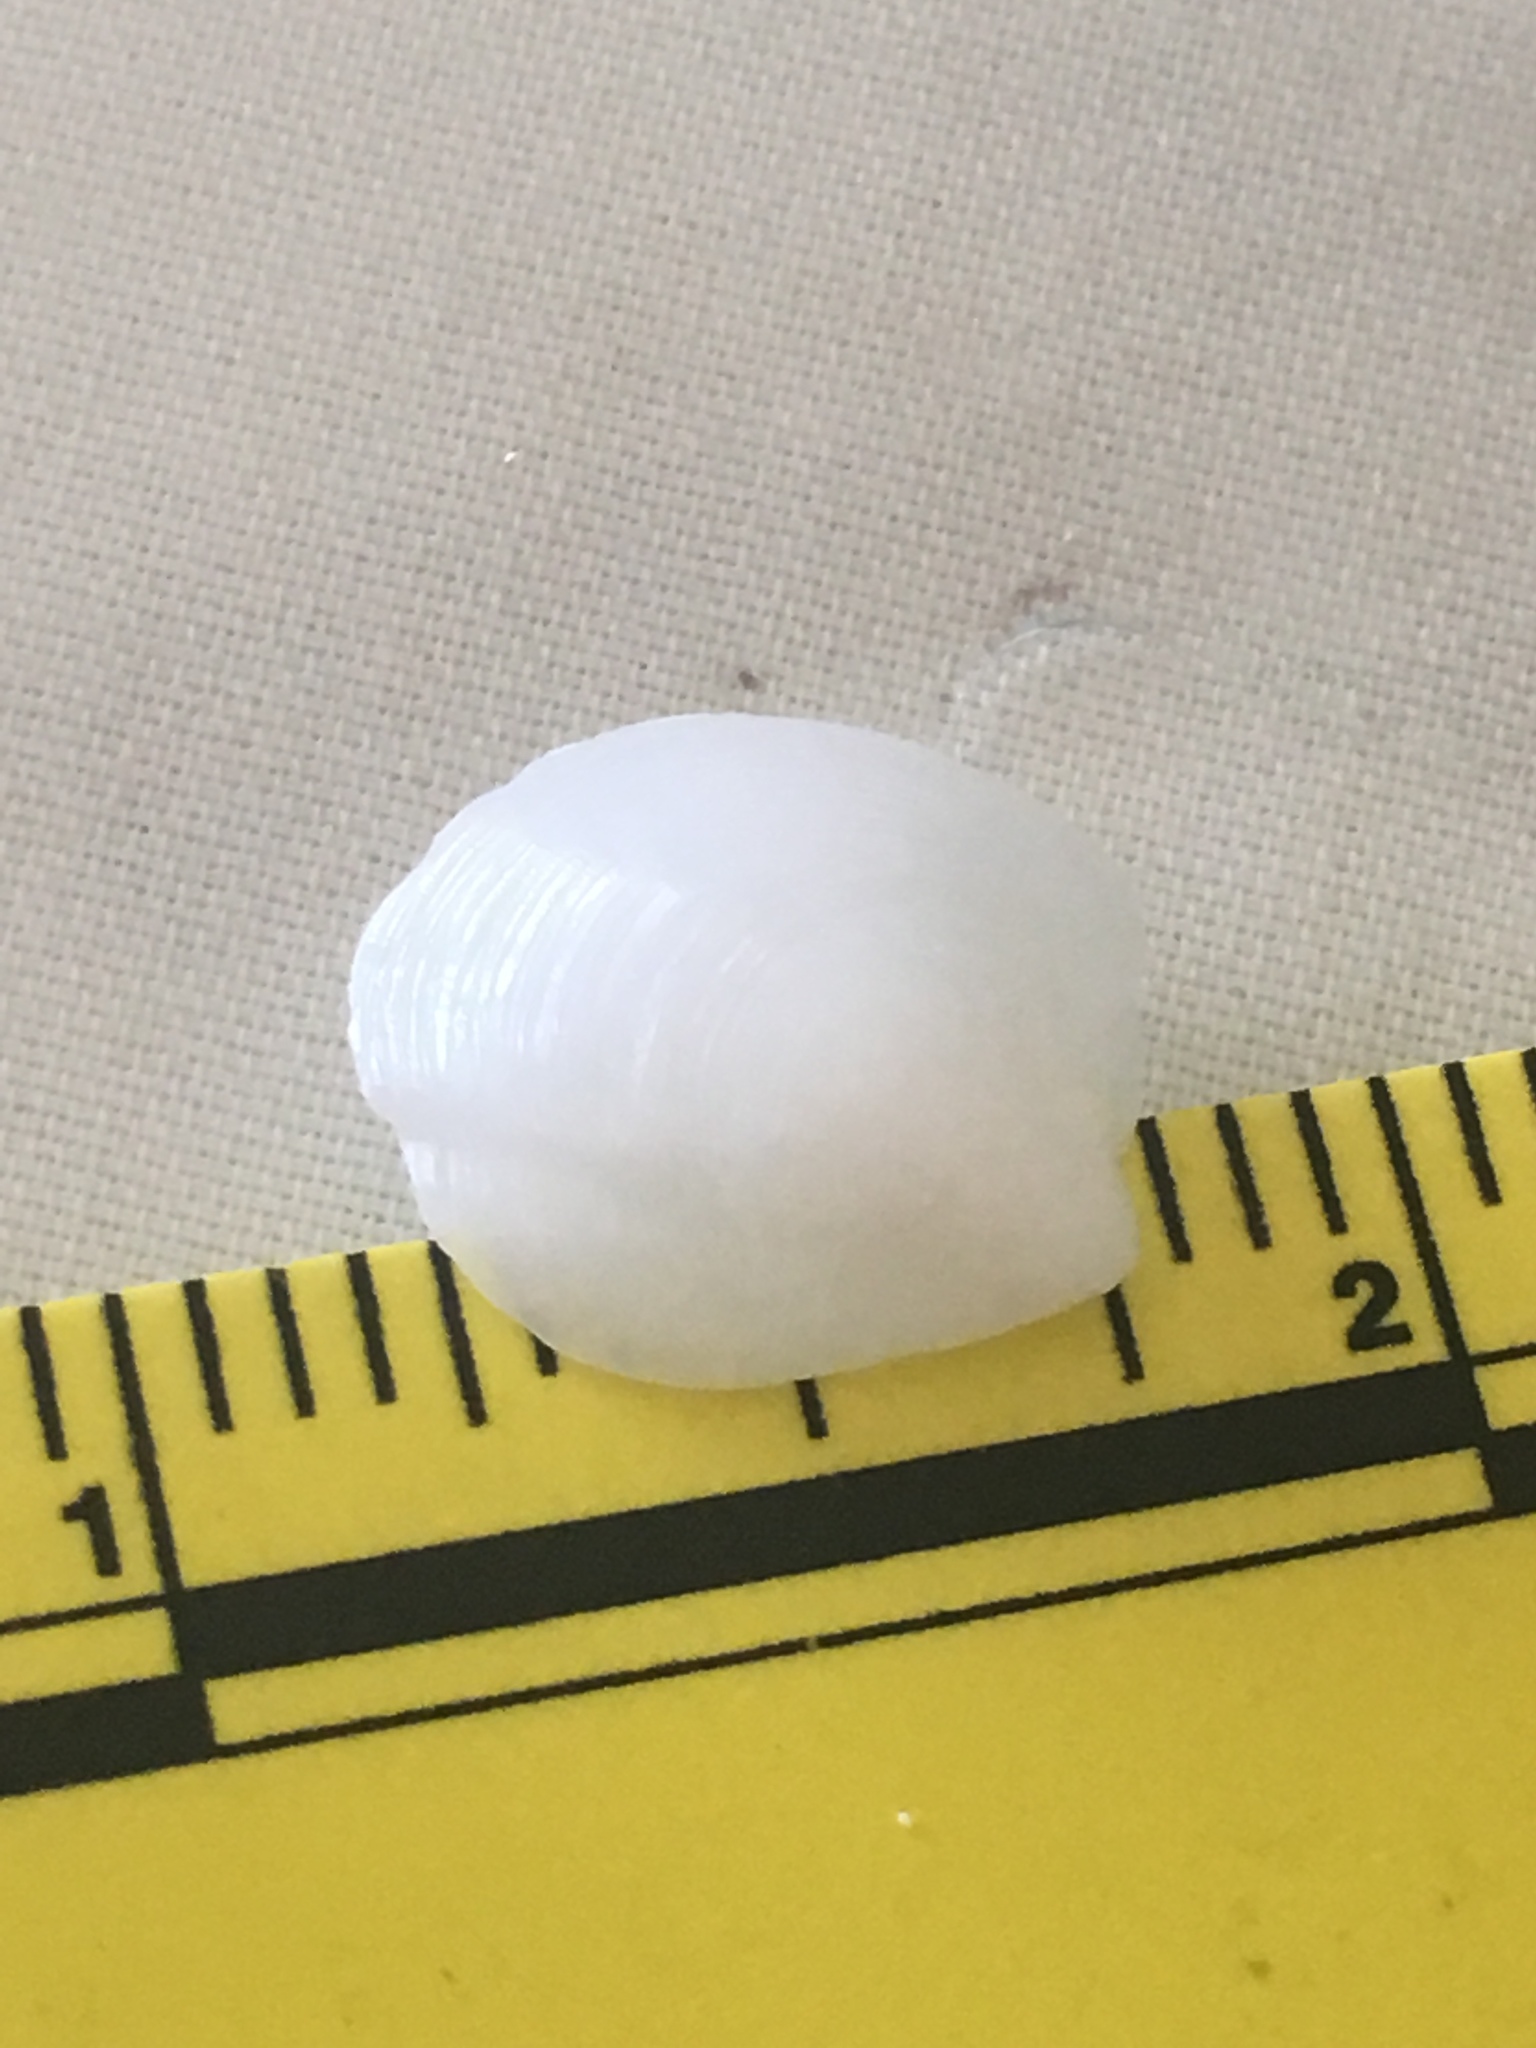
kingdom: Animalia
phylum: Mollusca
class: Bivalvia
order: Lucinida
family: Lucinidae
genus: Lucina
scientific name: Lucina pensylvanica
